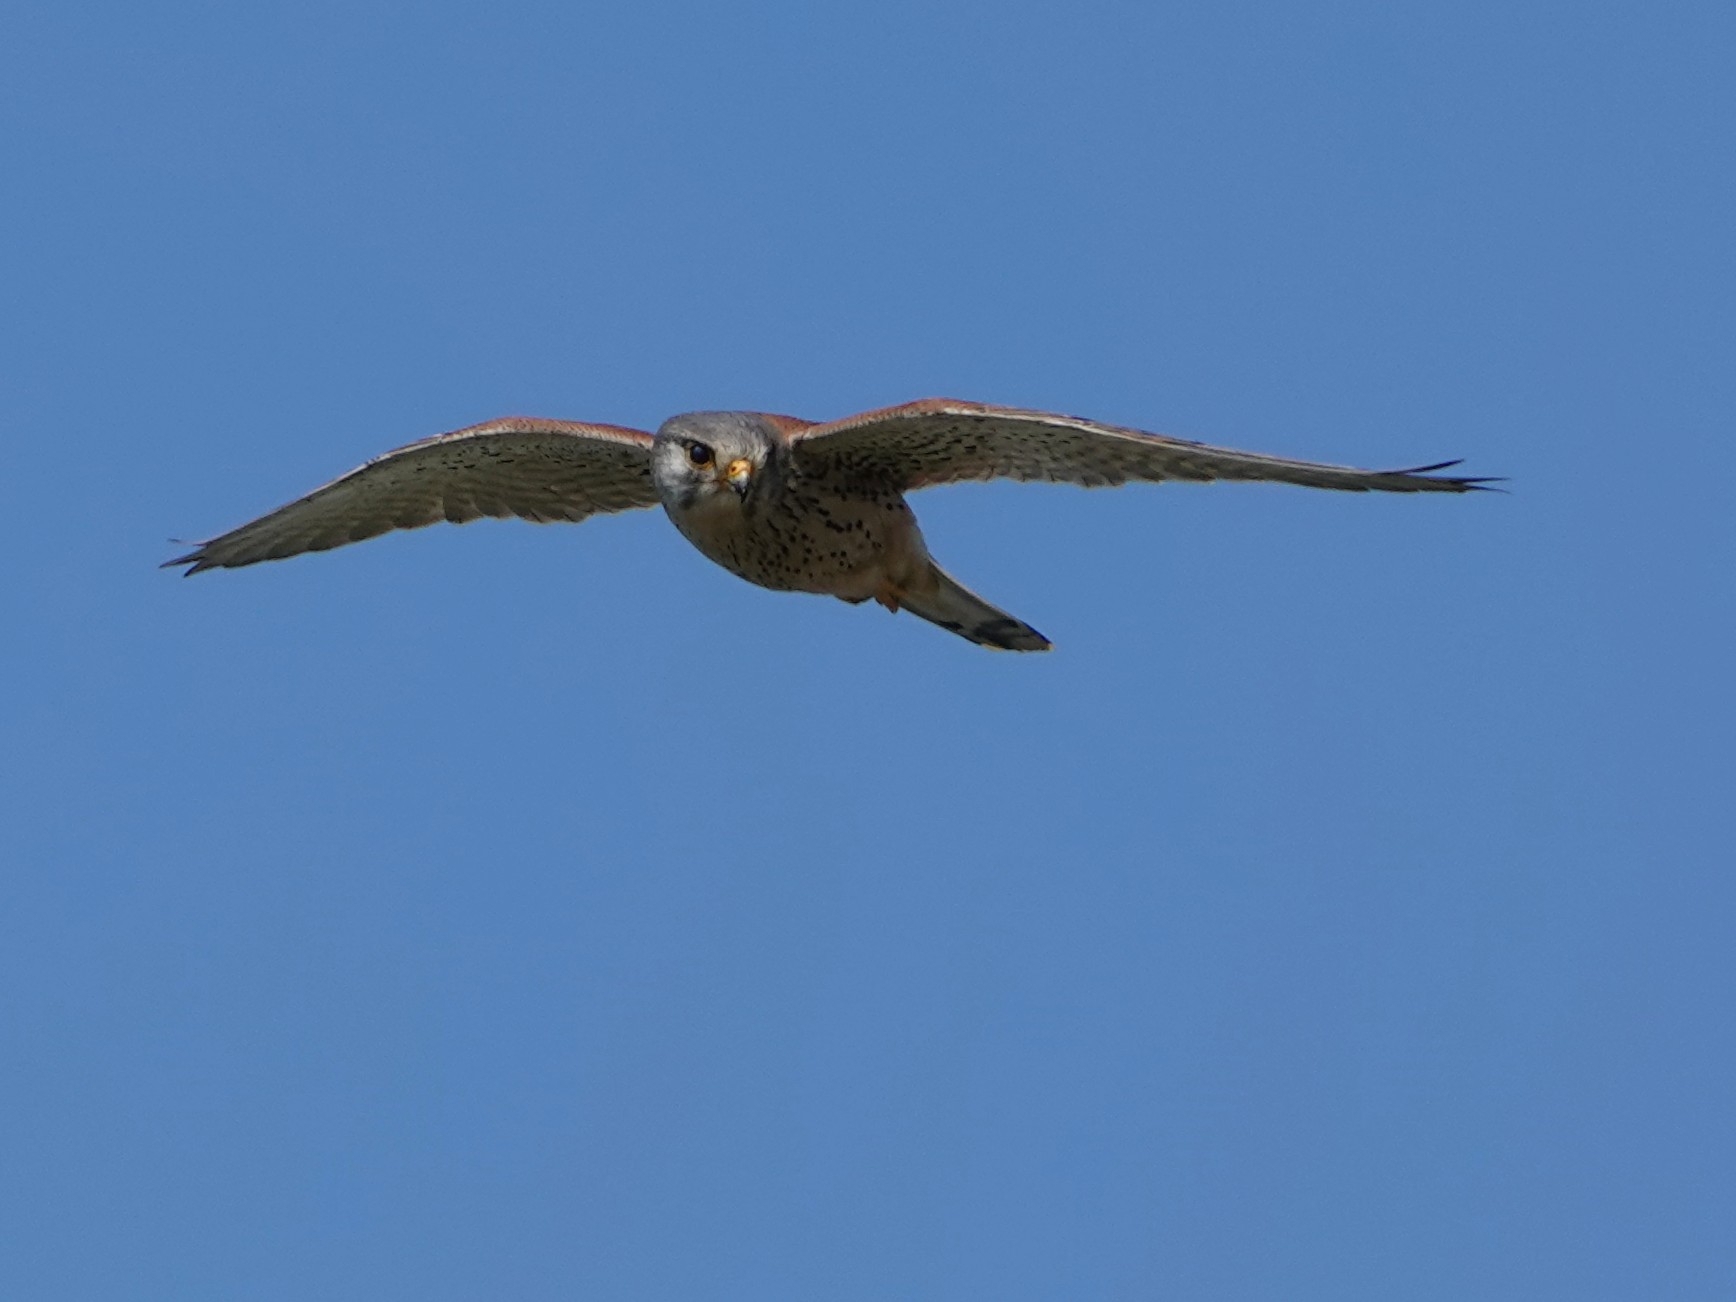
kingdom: Animalia
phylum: Chordata
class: Aves
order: Falconiformes
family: Falconidae
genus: Falco
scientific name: Falco tinnunculus
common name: Common kestrel
